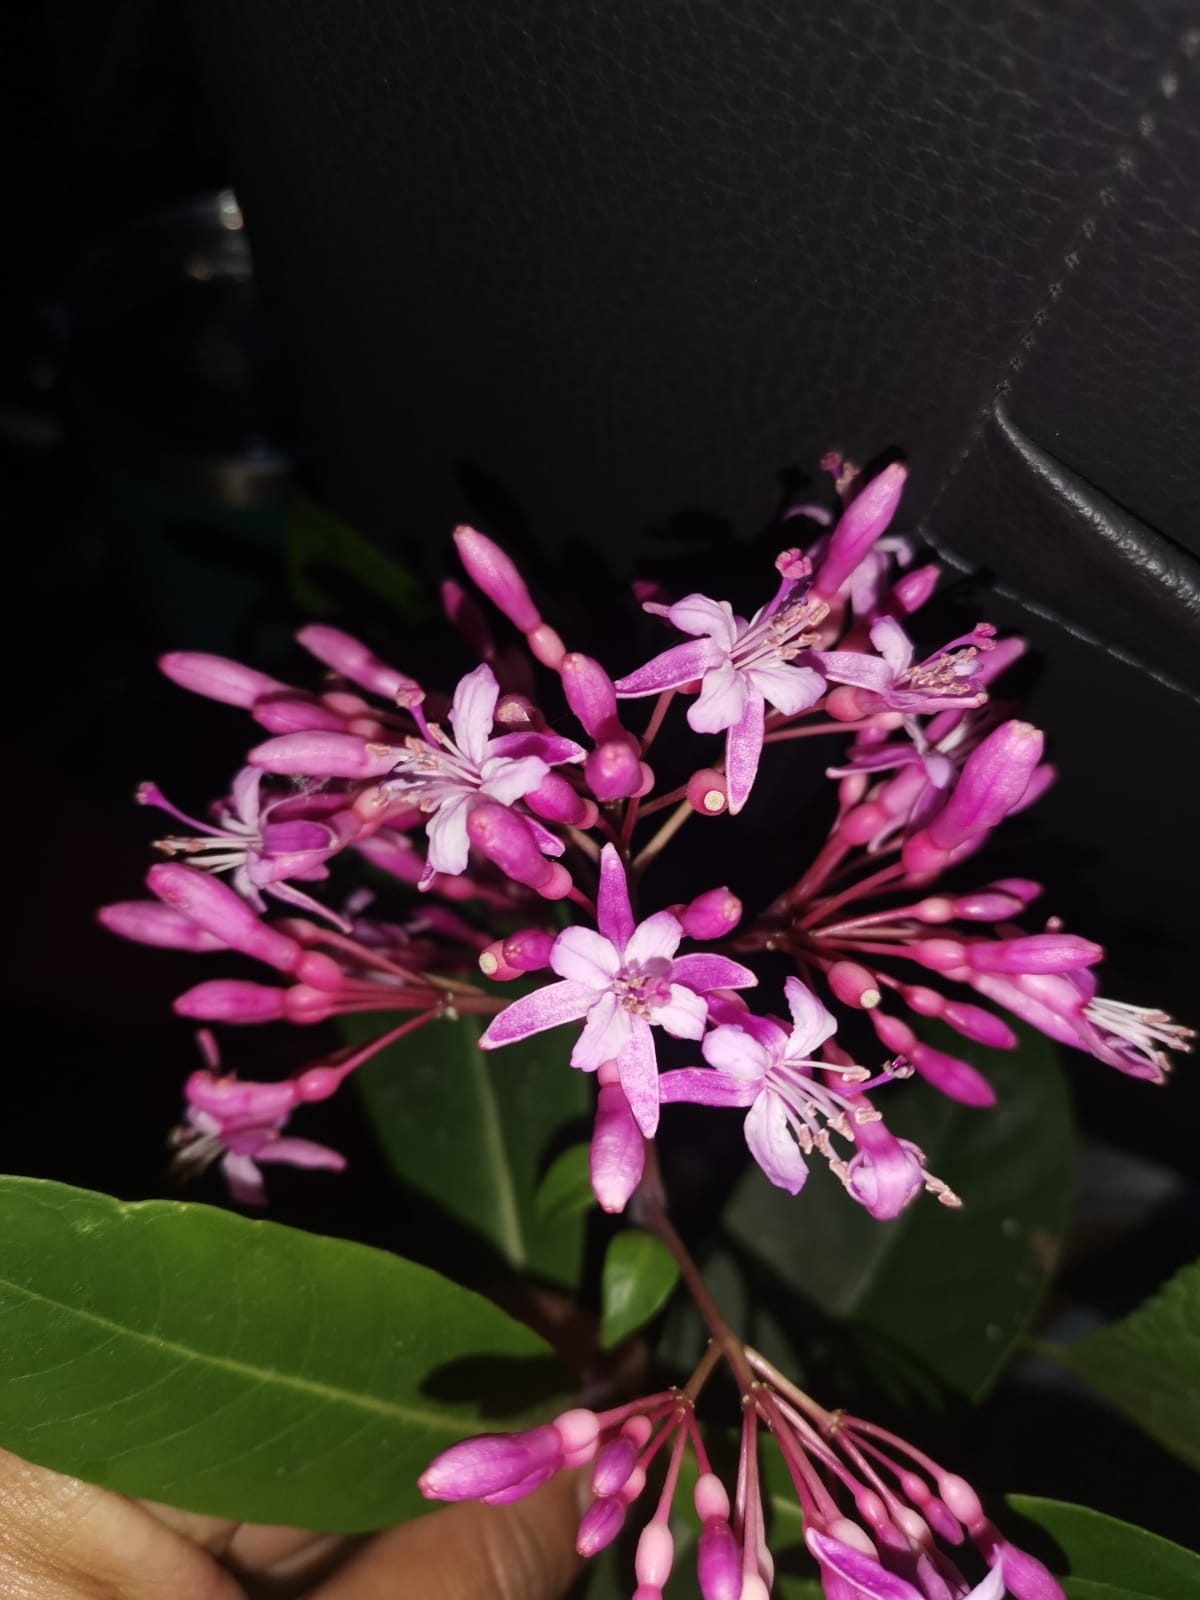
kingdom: Plantae
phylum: Tracheophyta
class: Magnoliopsida
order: Myrtales
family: Onagraceae
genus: Fuchsia
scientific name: Fuchsia arborescens
